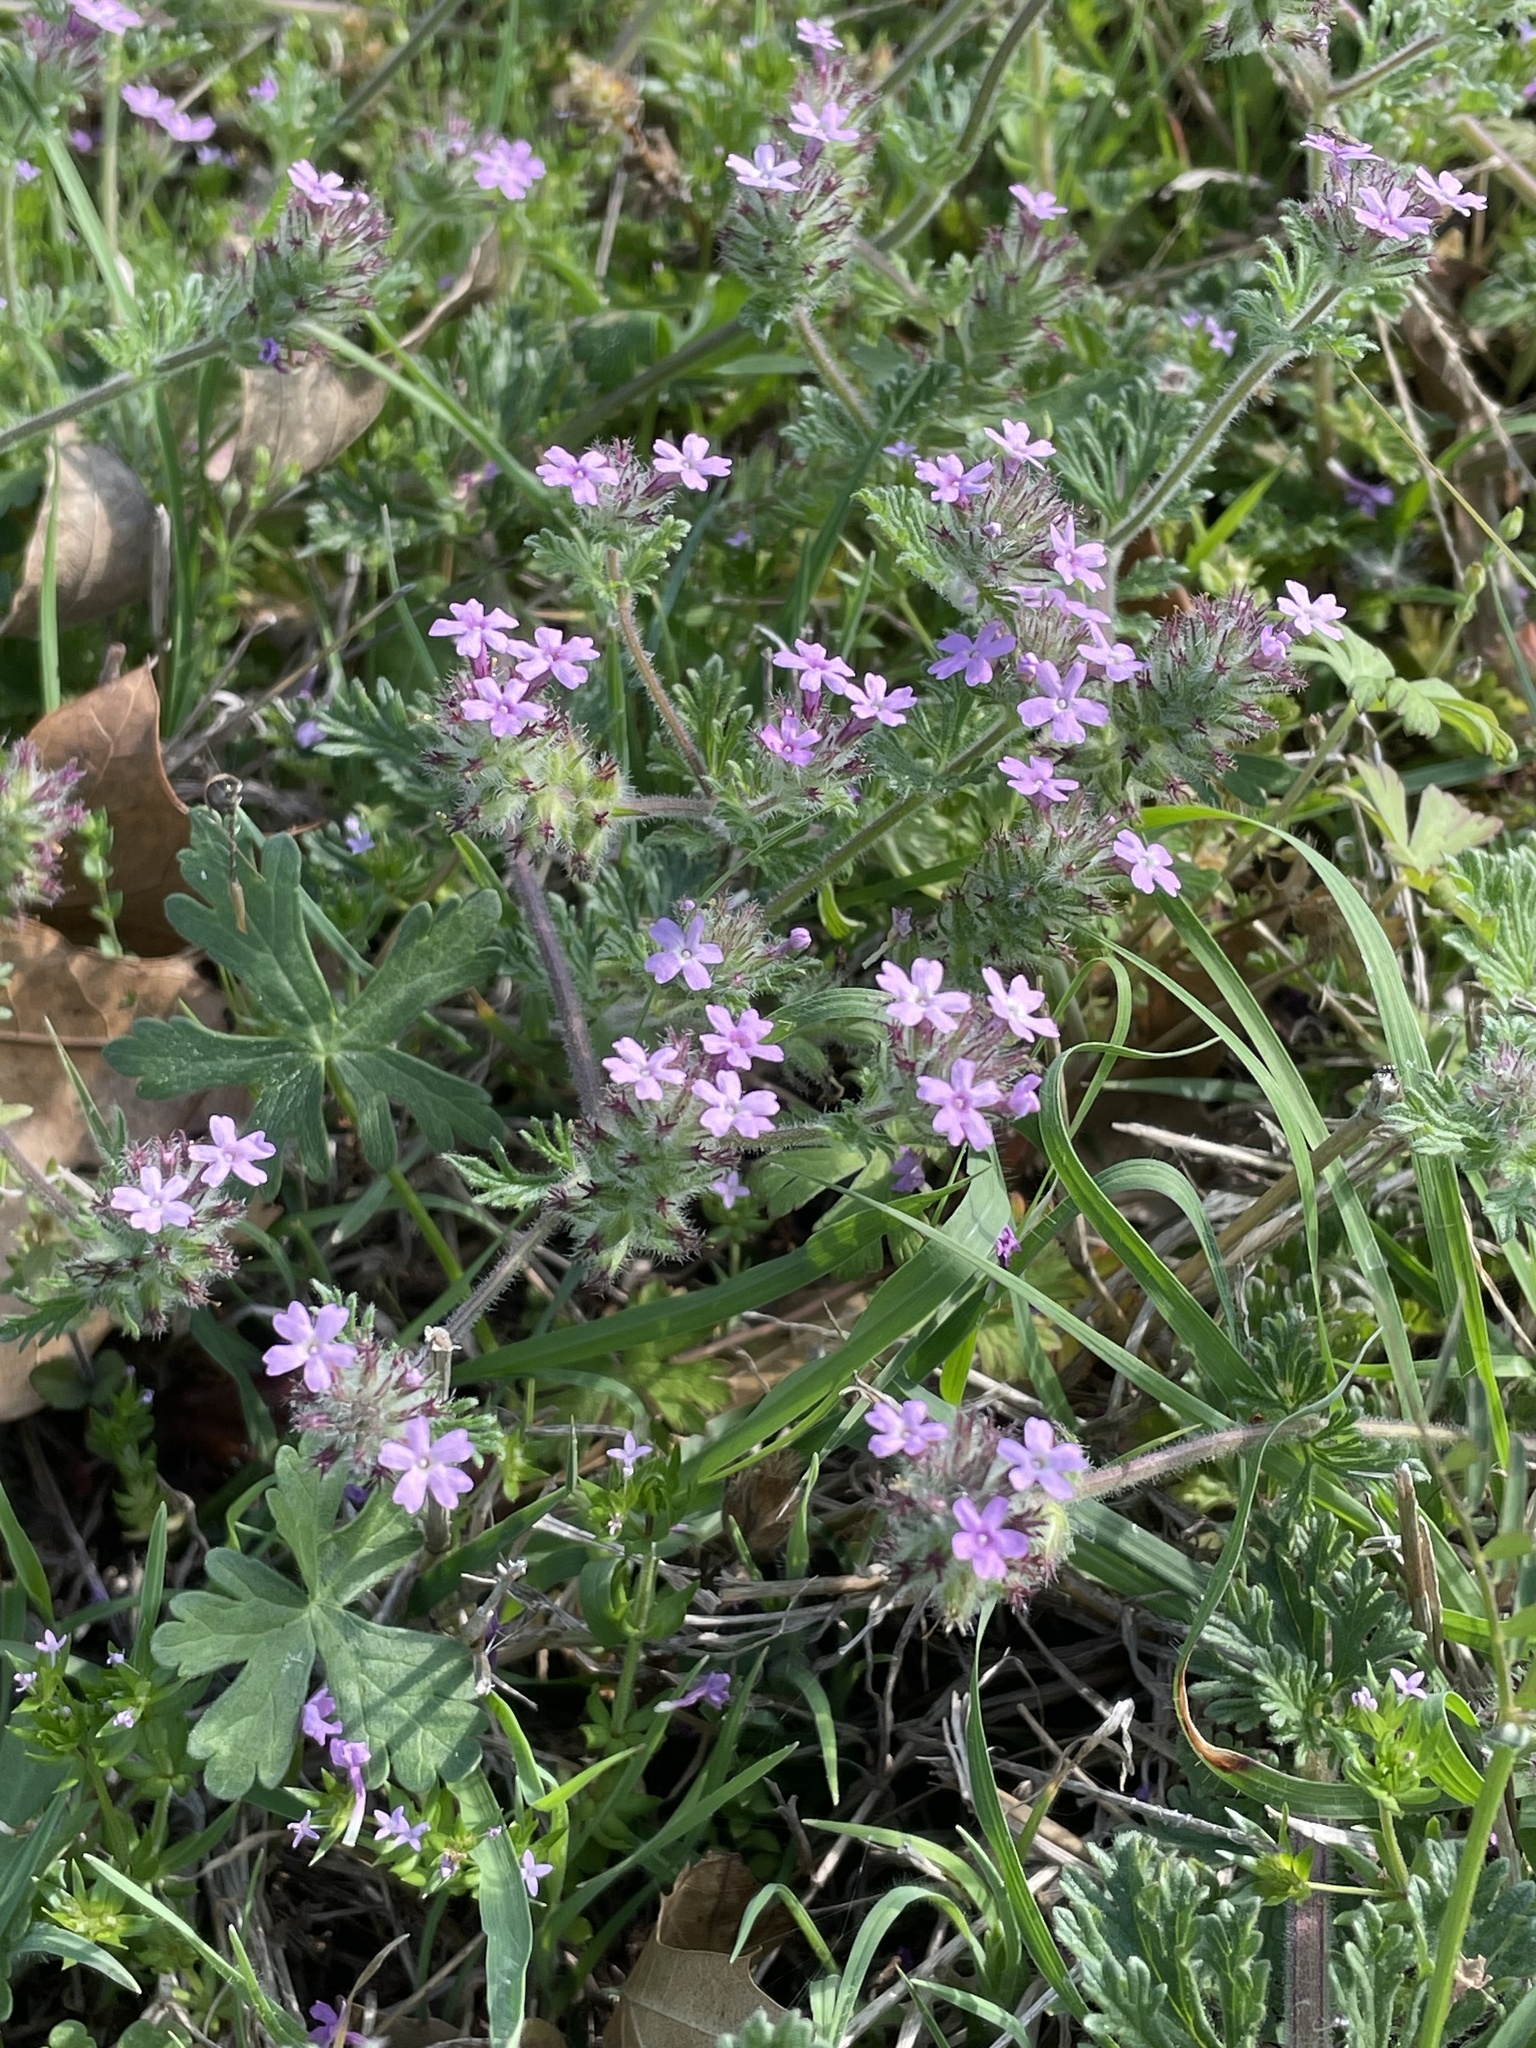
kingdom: Plantae
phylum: Tracheophyta
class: Magnoliopsida
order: Lamiales
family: Verbenaceae
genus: Verbena
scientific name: Verbena pumila
